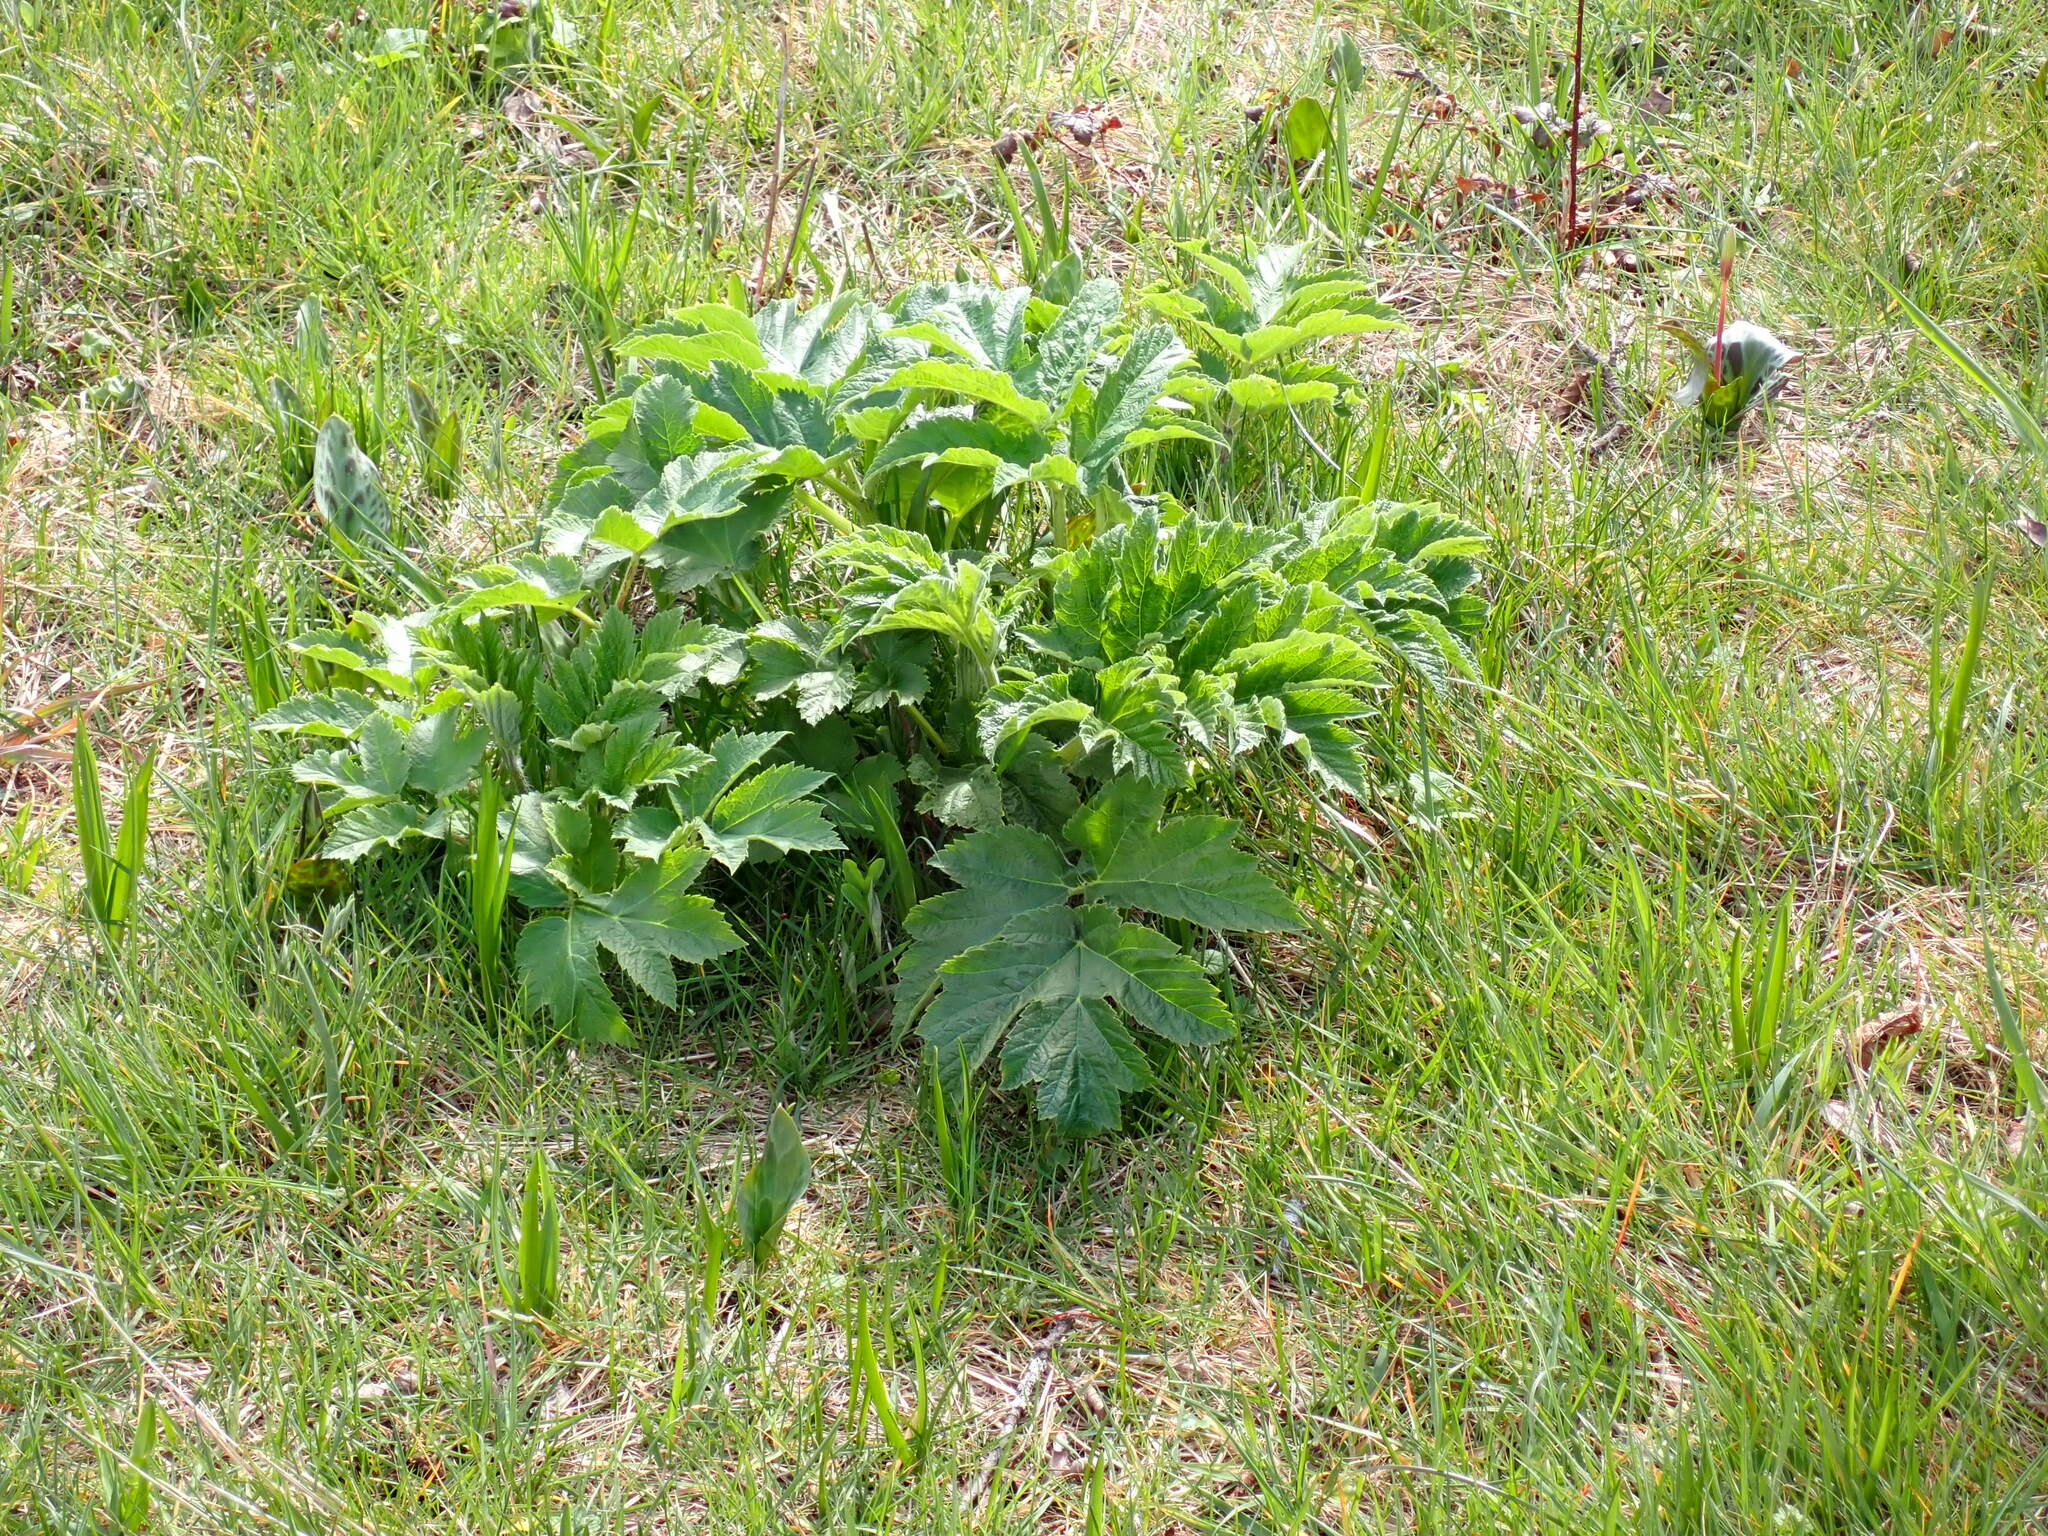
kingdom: Plantae
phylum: Tracheophyta
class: Magnoliopsida
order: Apiales
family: Apiaceae
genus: Heracleum
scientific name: Heracleum maximum
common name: American cow parsnip
